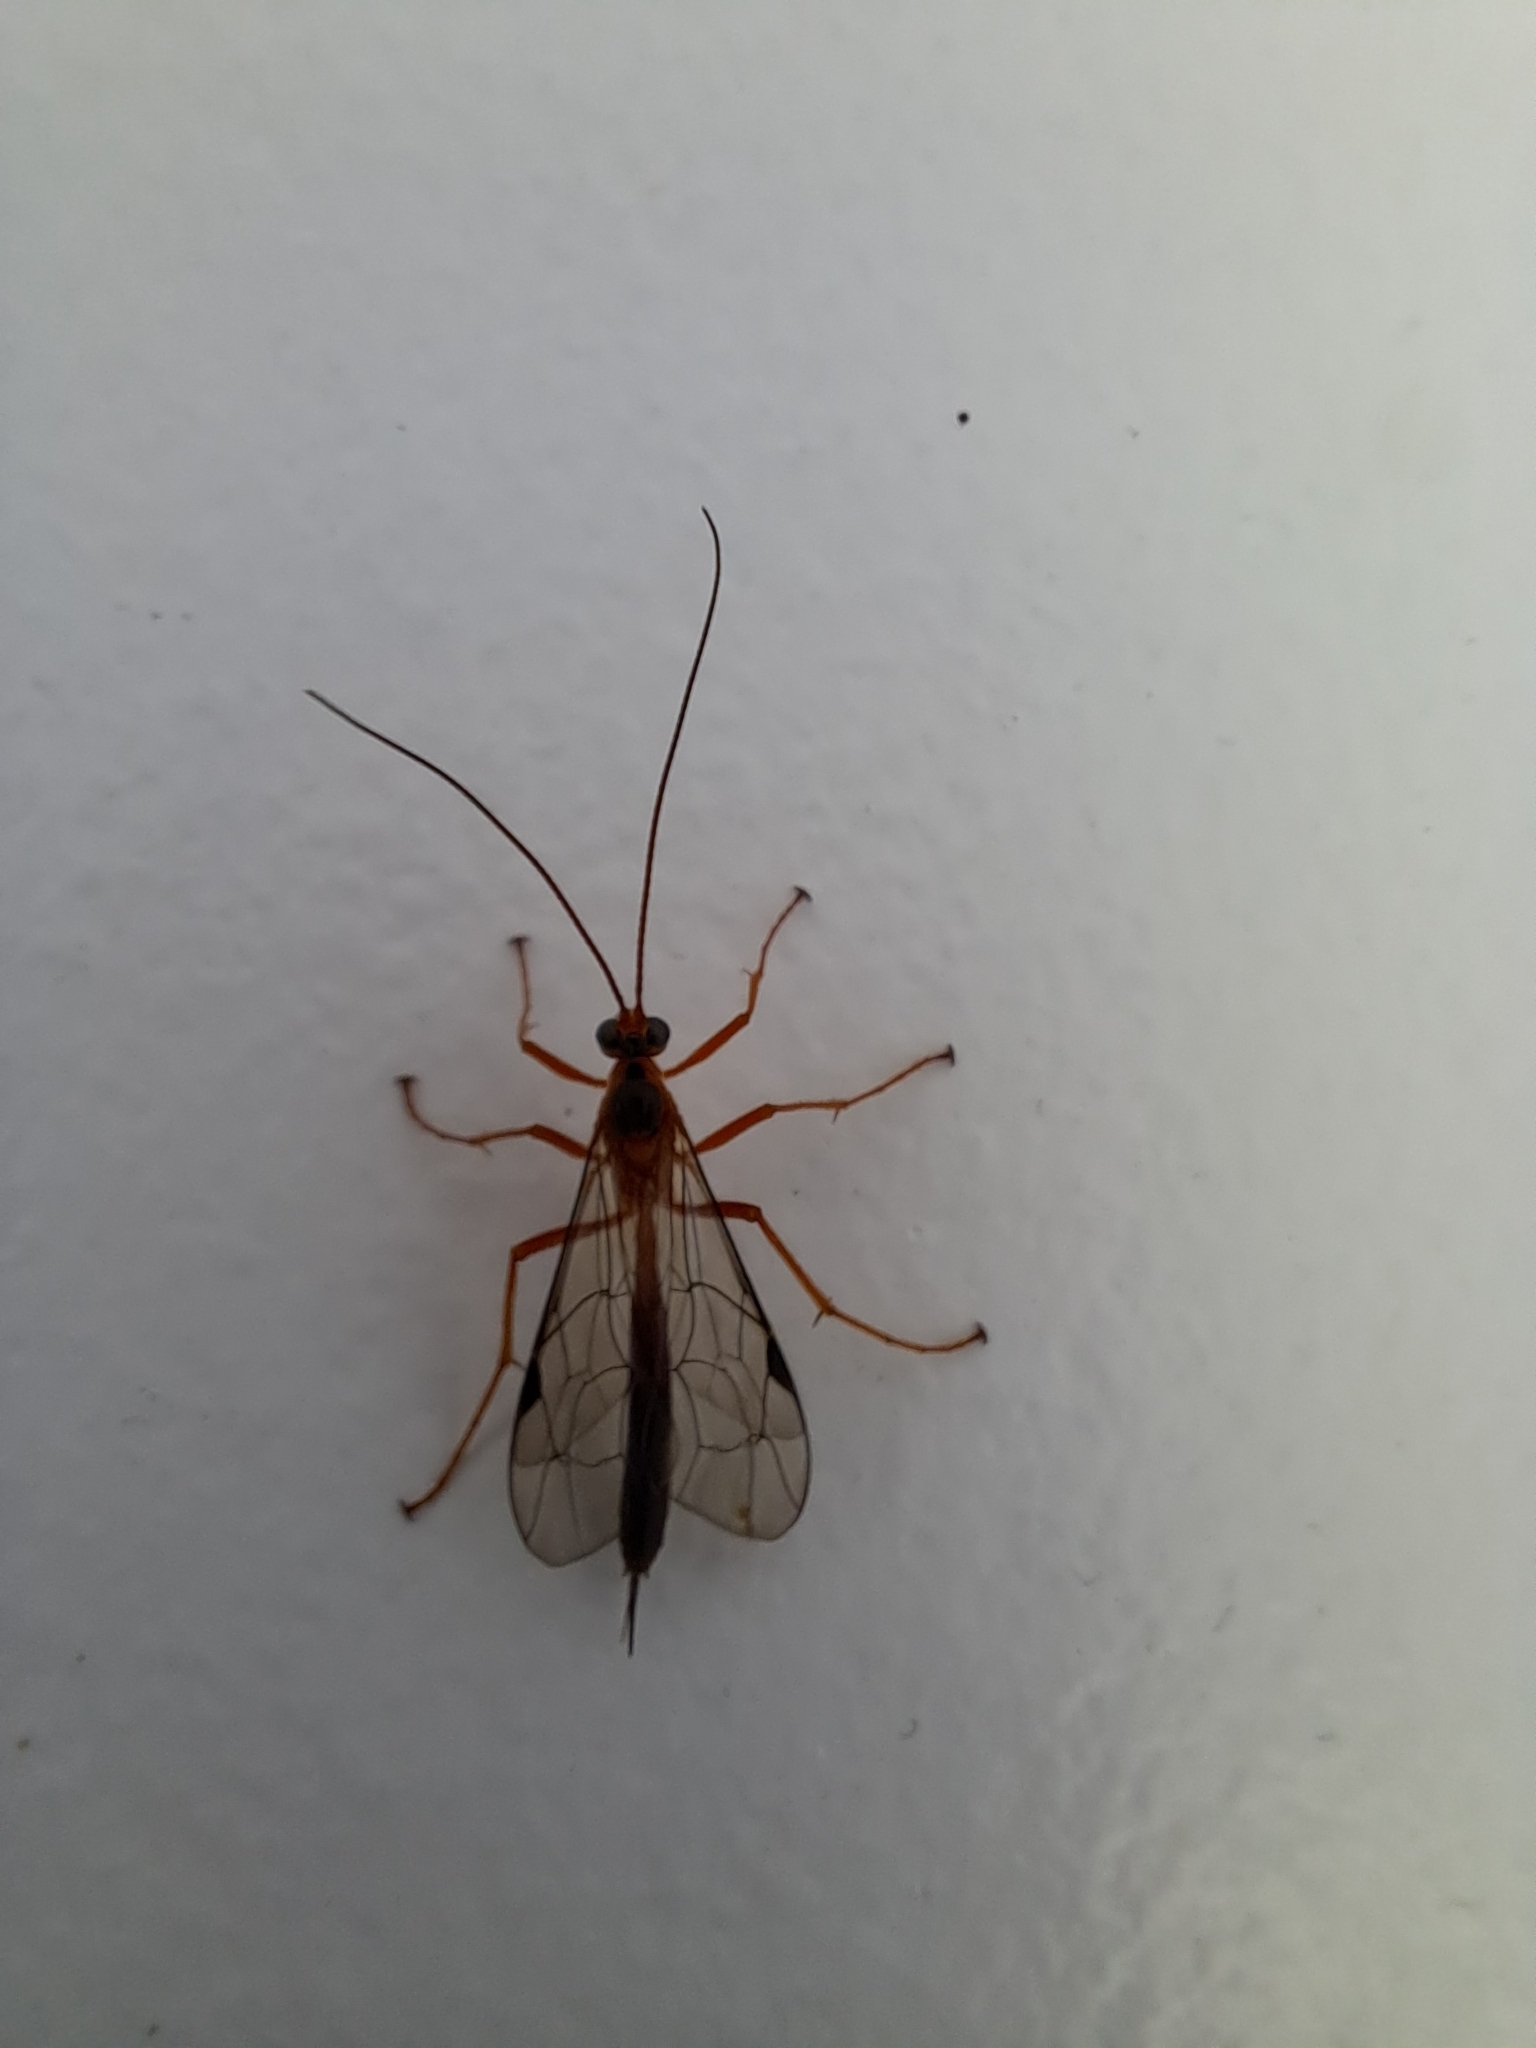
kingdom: Animalia
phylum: Arthropoda
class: Insecta
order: Hymenoptera
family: Ichneumonidae
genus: Netelia
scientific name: Netelia ephippiata
